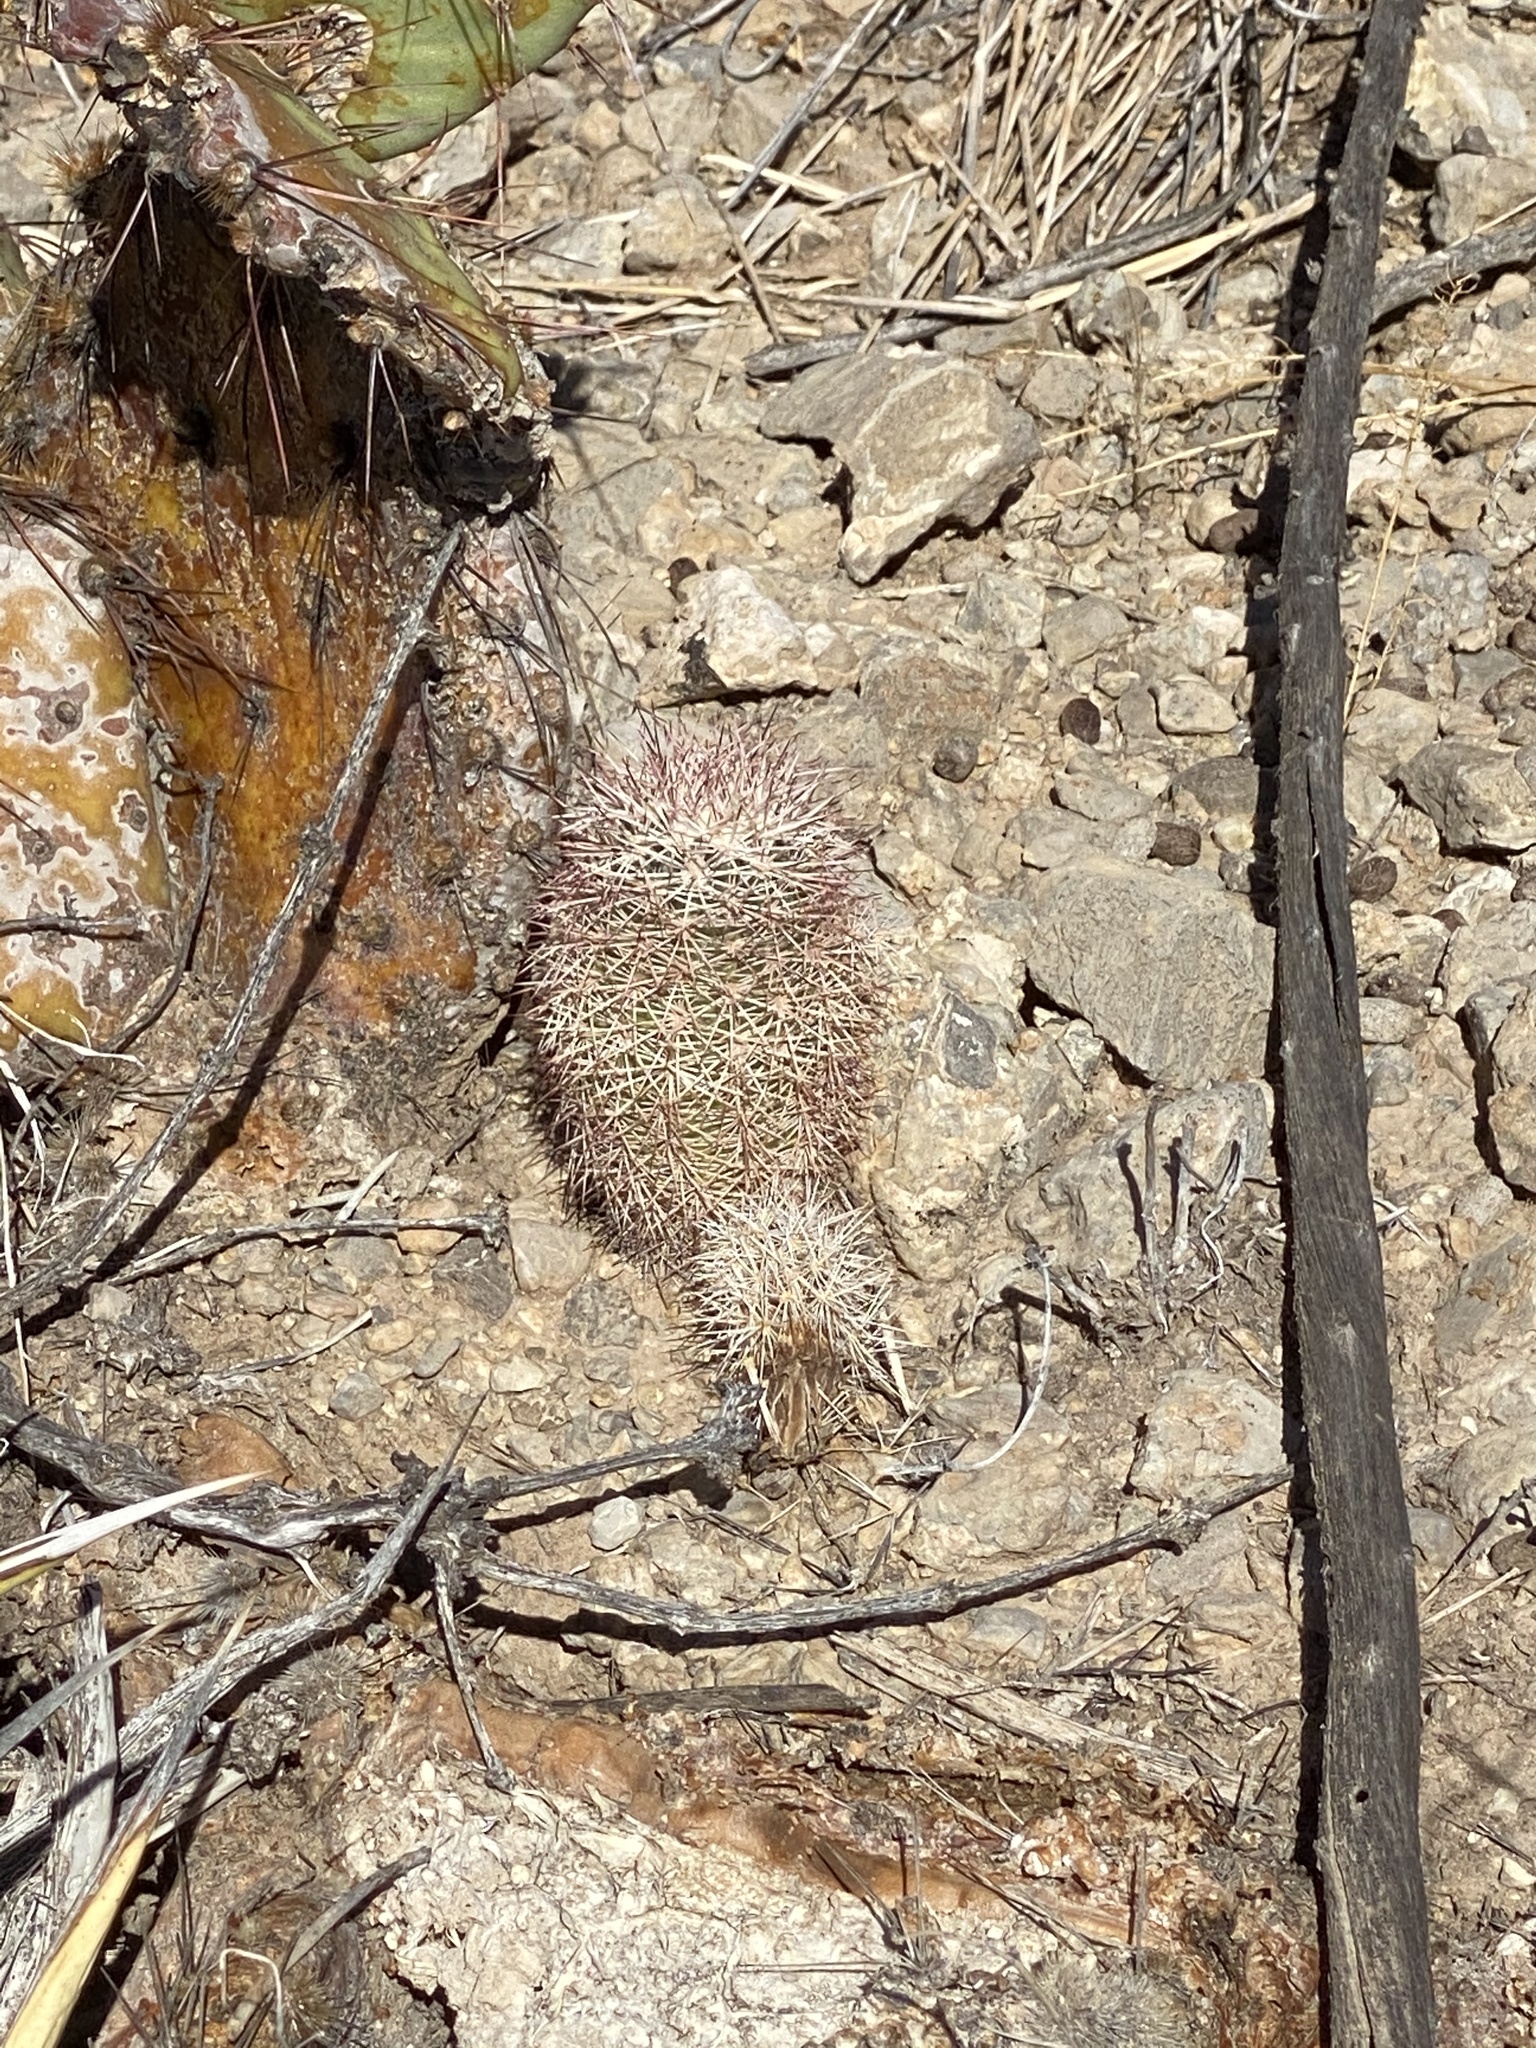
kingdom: Plantae
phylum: Tracheophyta
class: Magnoliopsida
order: Caryophyllales
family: Cactaceae
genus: Echinocereus
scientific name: Echinocereus dasyacanthus
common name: Spiny hedgehog cactus
